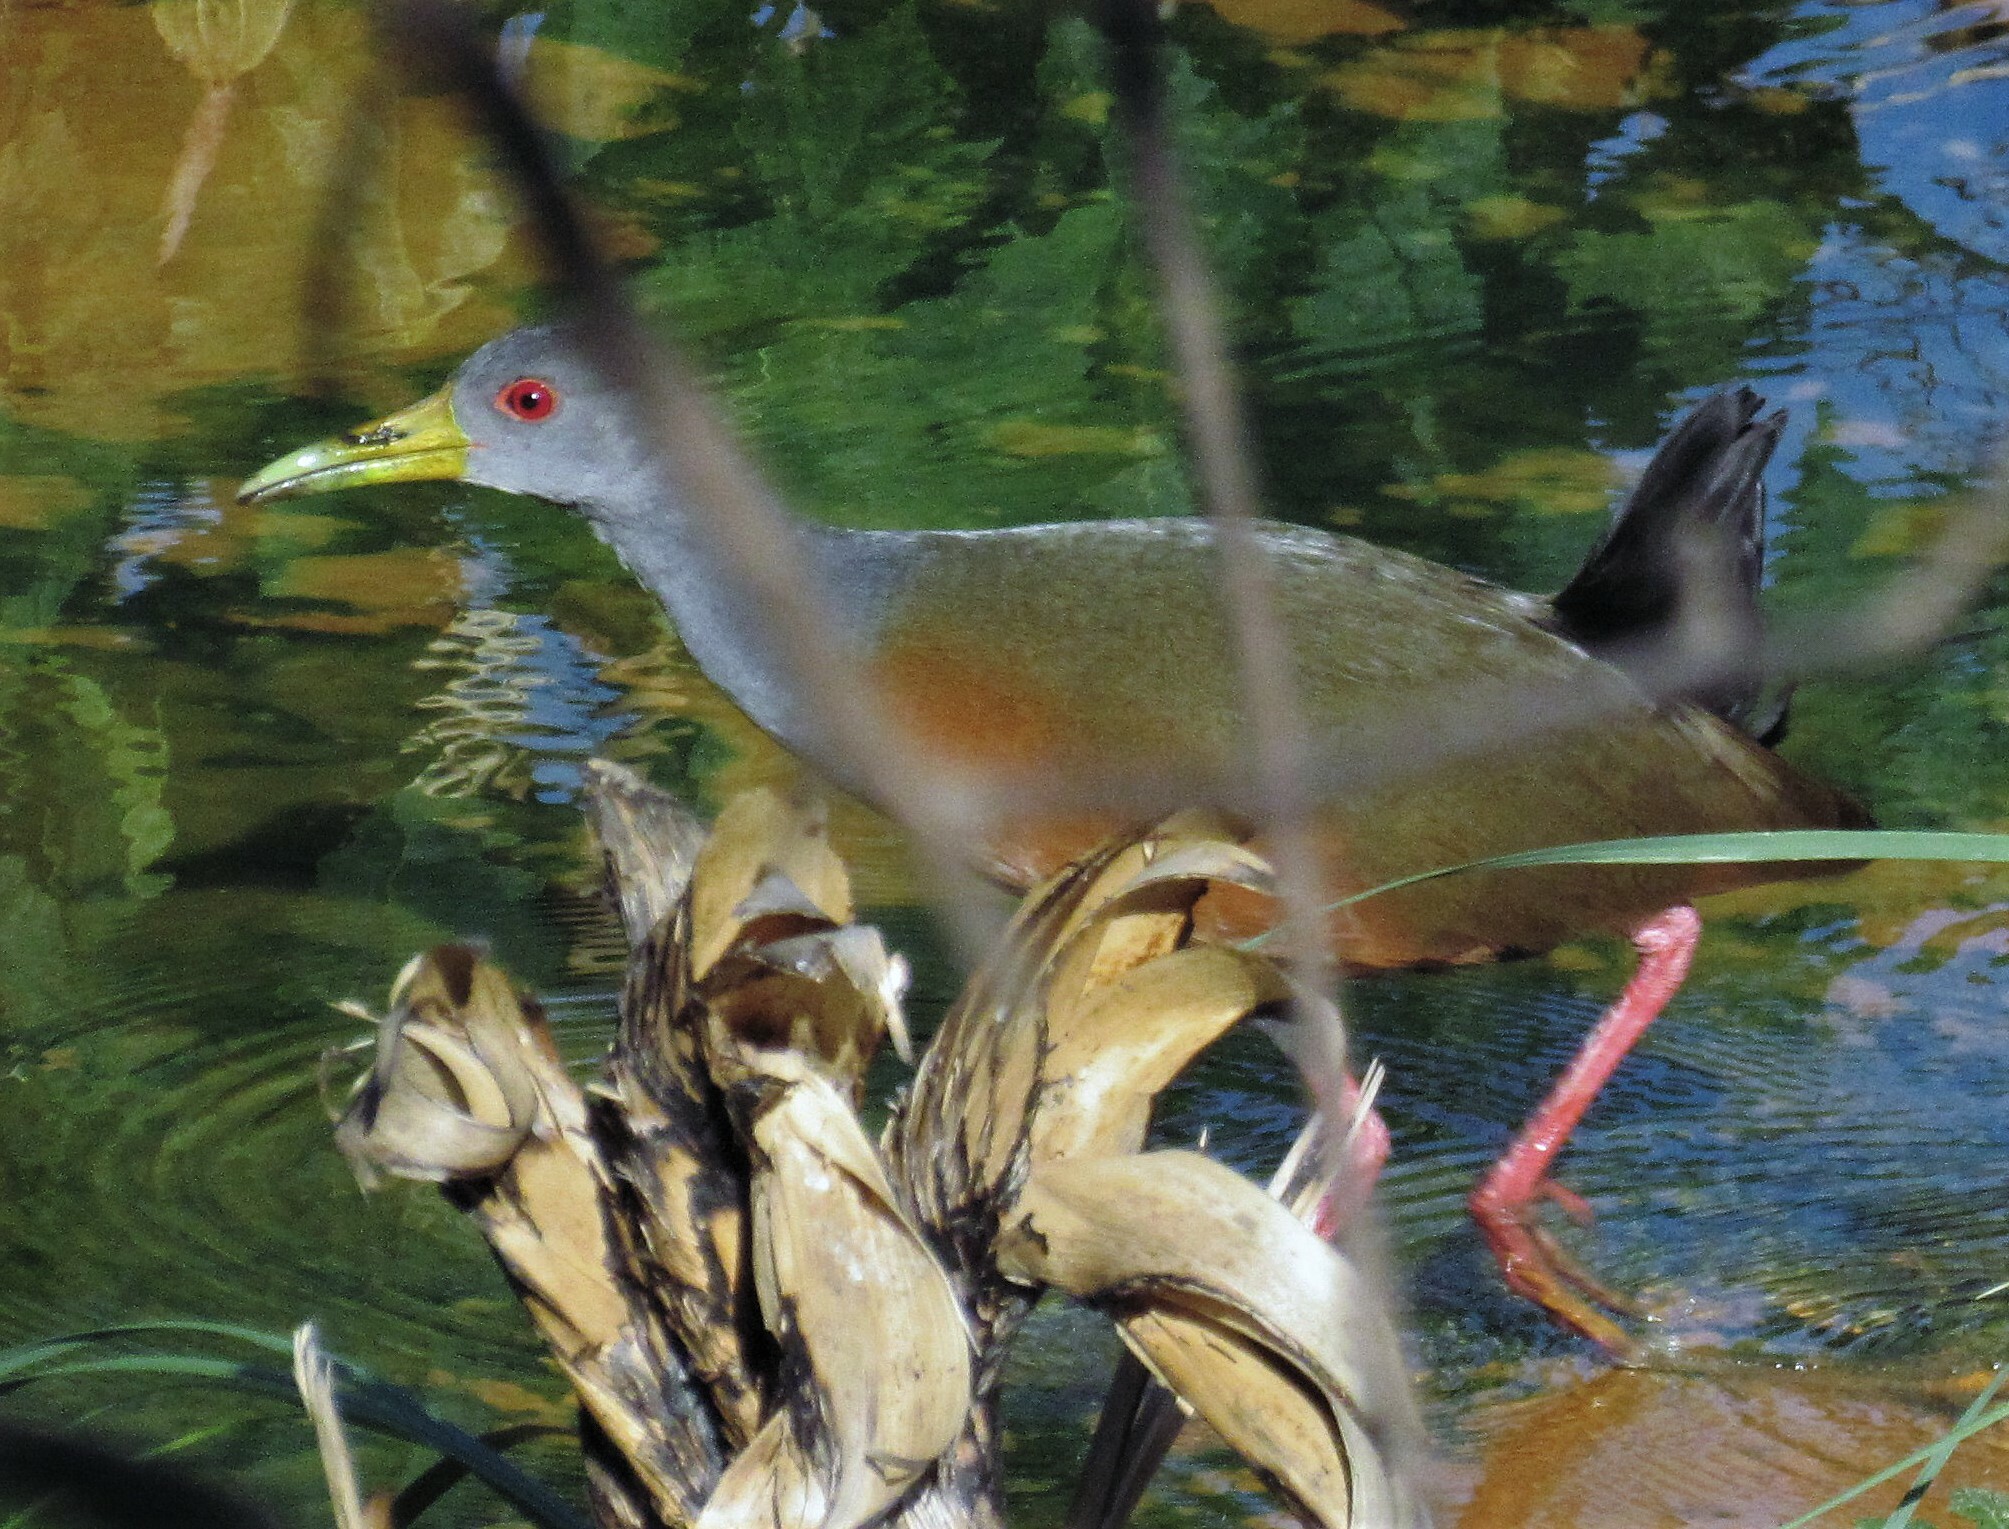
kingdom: Animalia
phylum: Chordata
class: Aves
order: Gruiformes
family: Rallidae
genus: Aramides
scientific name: Aramides cajanea
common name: Gray-necked wood-rail
